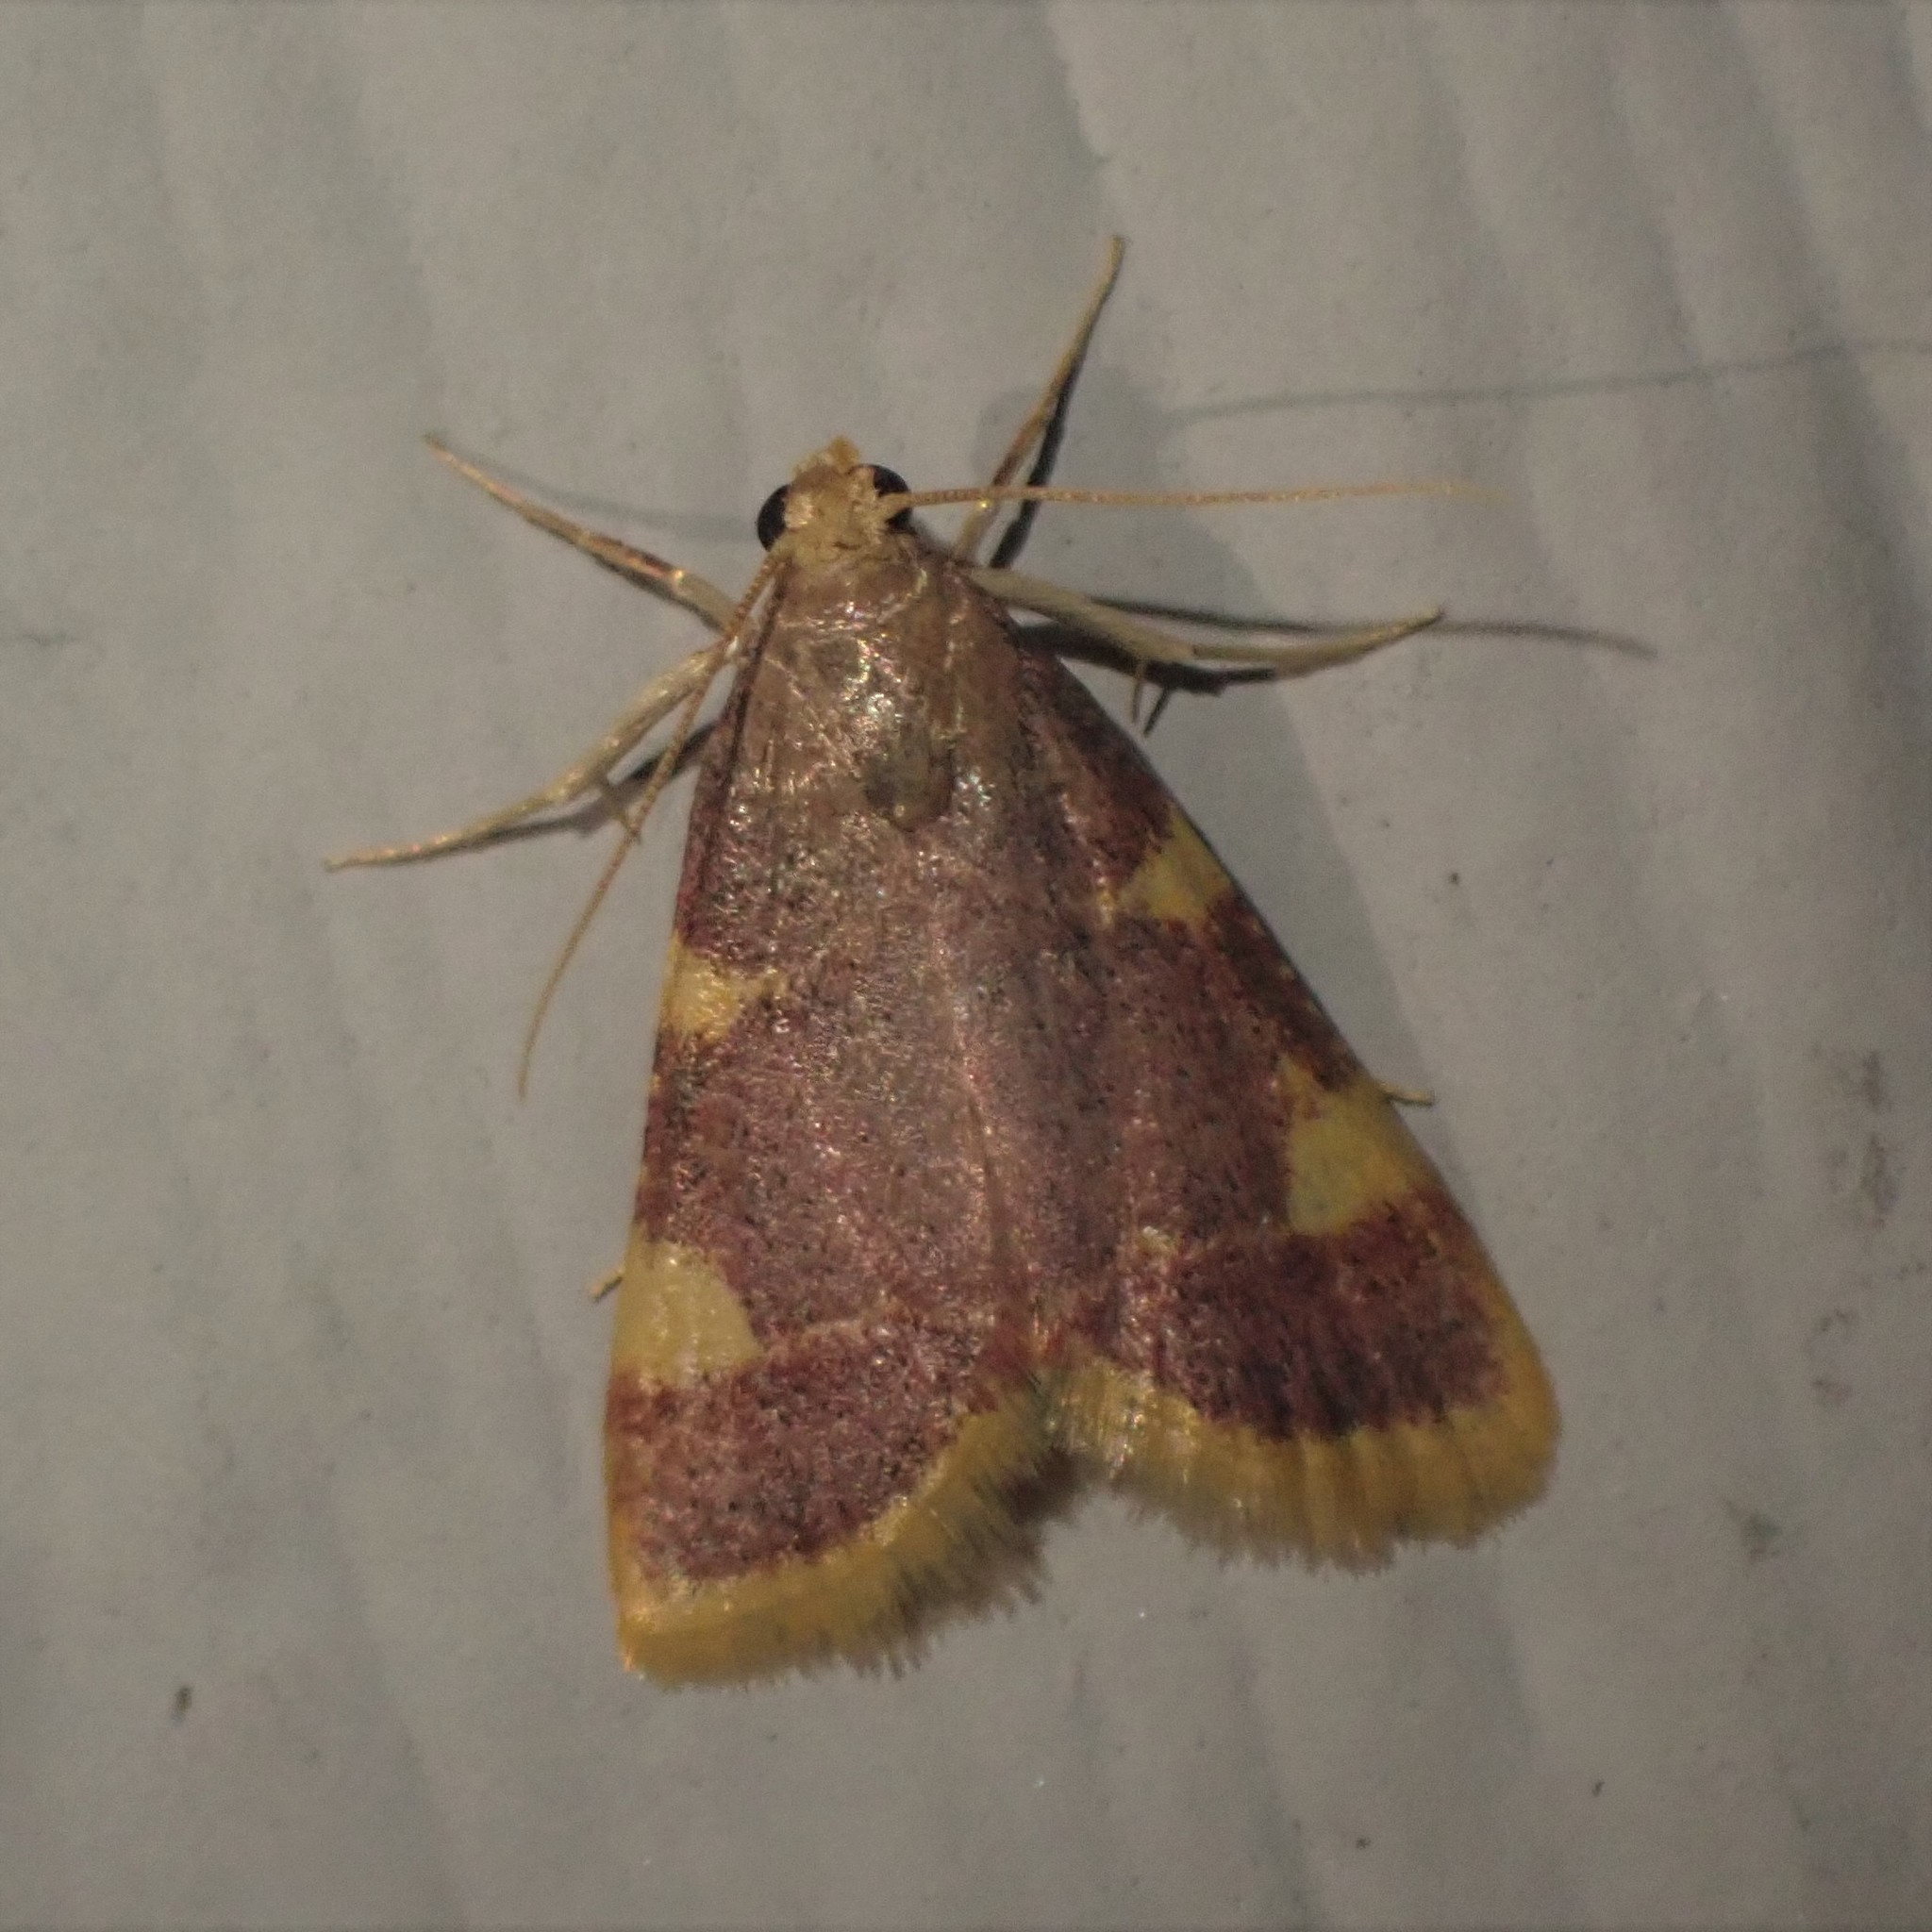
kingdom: Animalia
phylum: Arthropoda
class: Insecta
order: Lepidoptera
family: Pyralidae
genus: Hypsopygia
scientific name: Hypsopygia costalis
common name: Gold triangle
